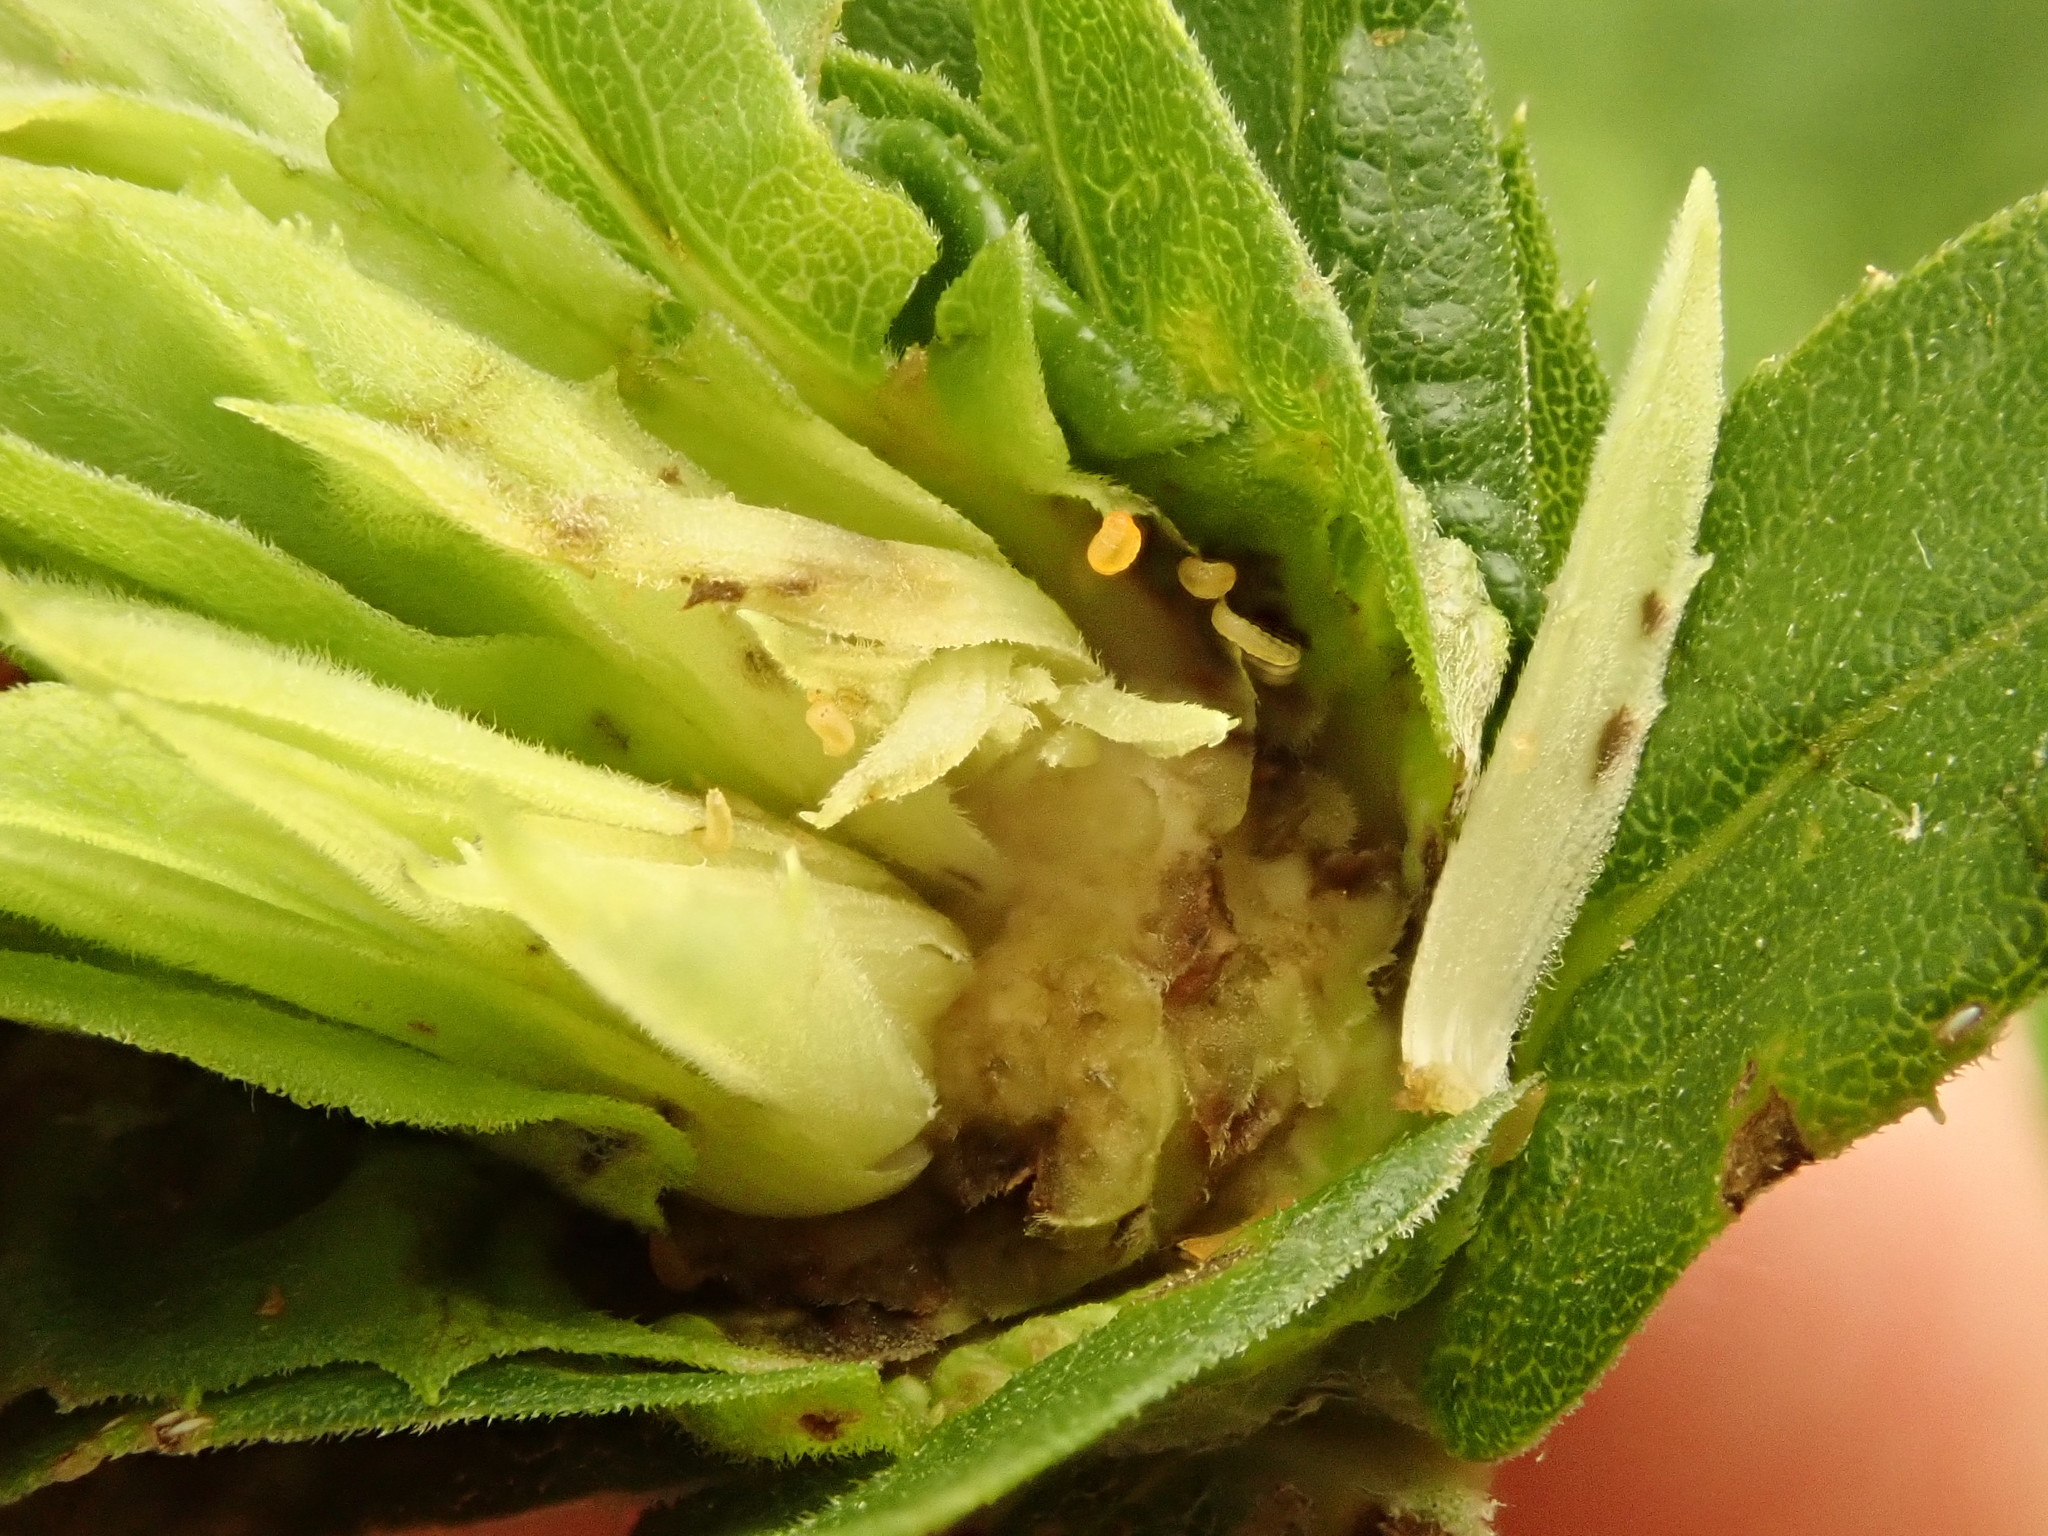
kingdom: Animalia
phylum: Arthropoda
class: Insecta
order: Diptera
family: Cecidomyiidae
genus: Rhopalomyia
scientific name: Rhopalomyia solidaginis
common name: Goldenrod bunch gall midge
